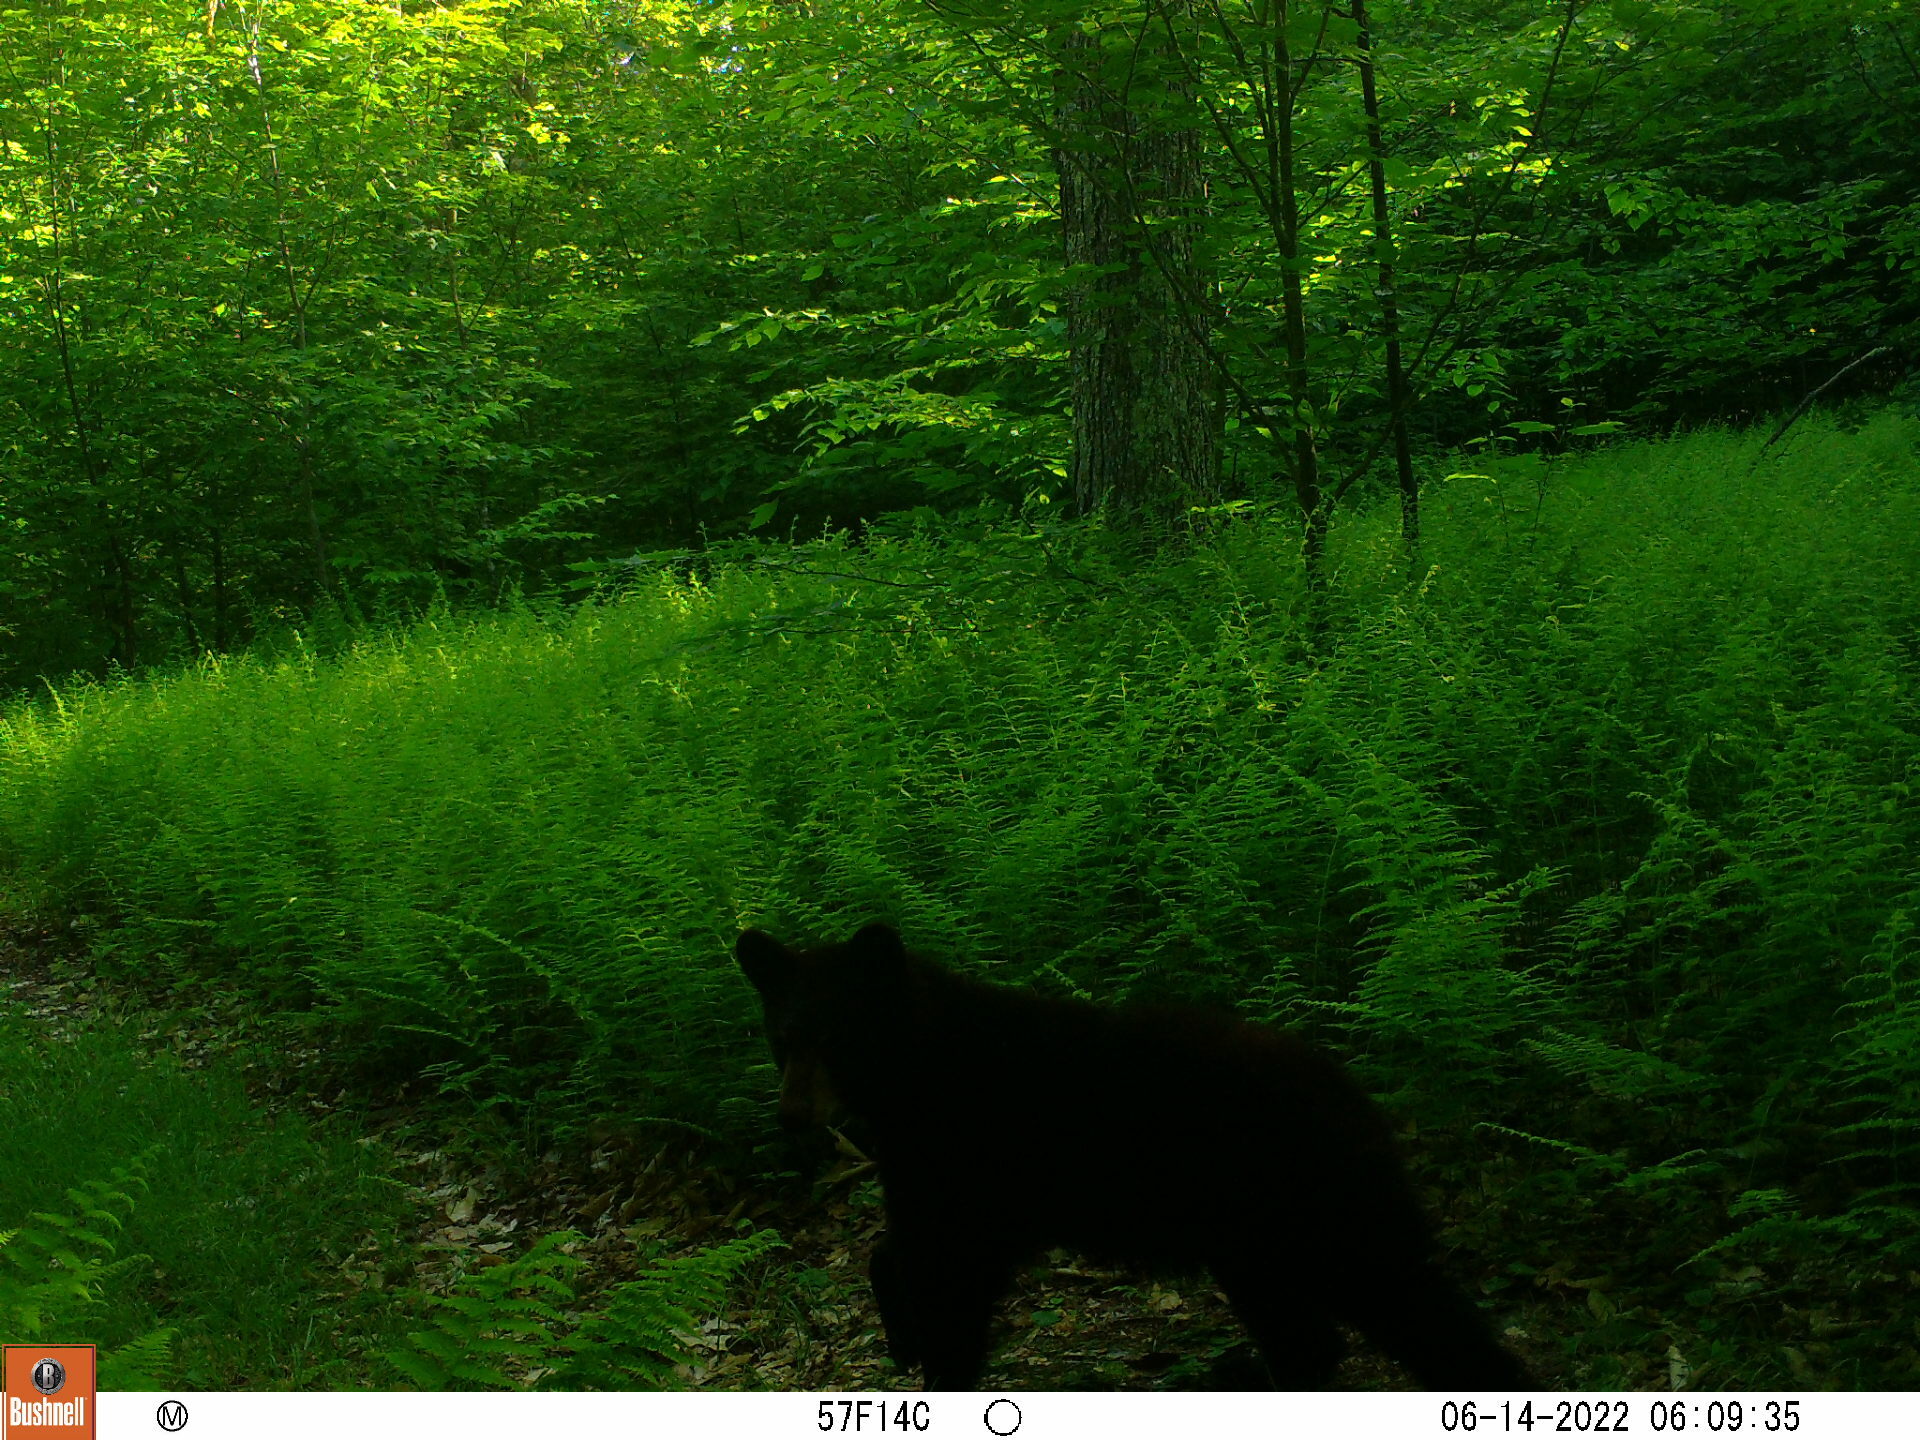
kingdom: Animalia
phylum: Chordata
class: Mammalia
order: Carnivora
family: Ursidae
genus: Ursus
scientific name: Ursus americanus
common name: American black bear
